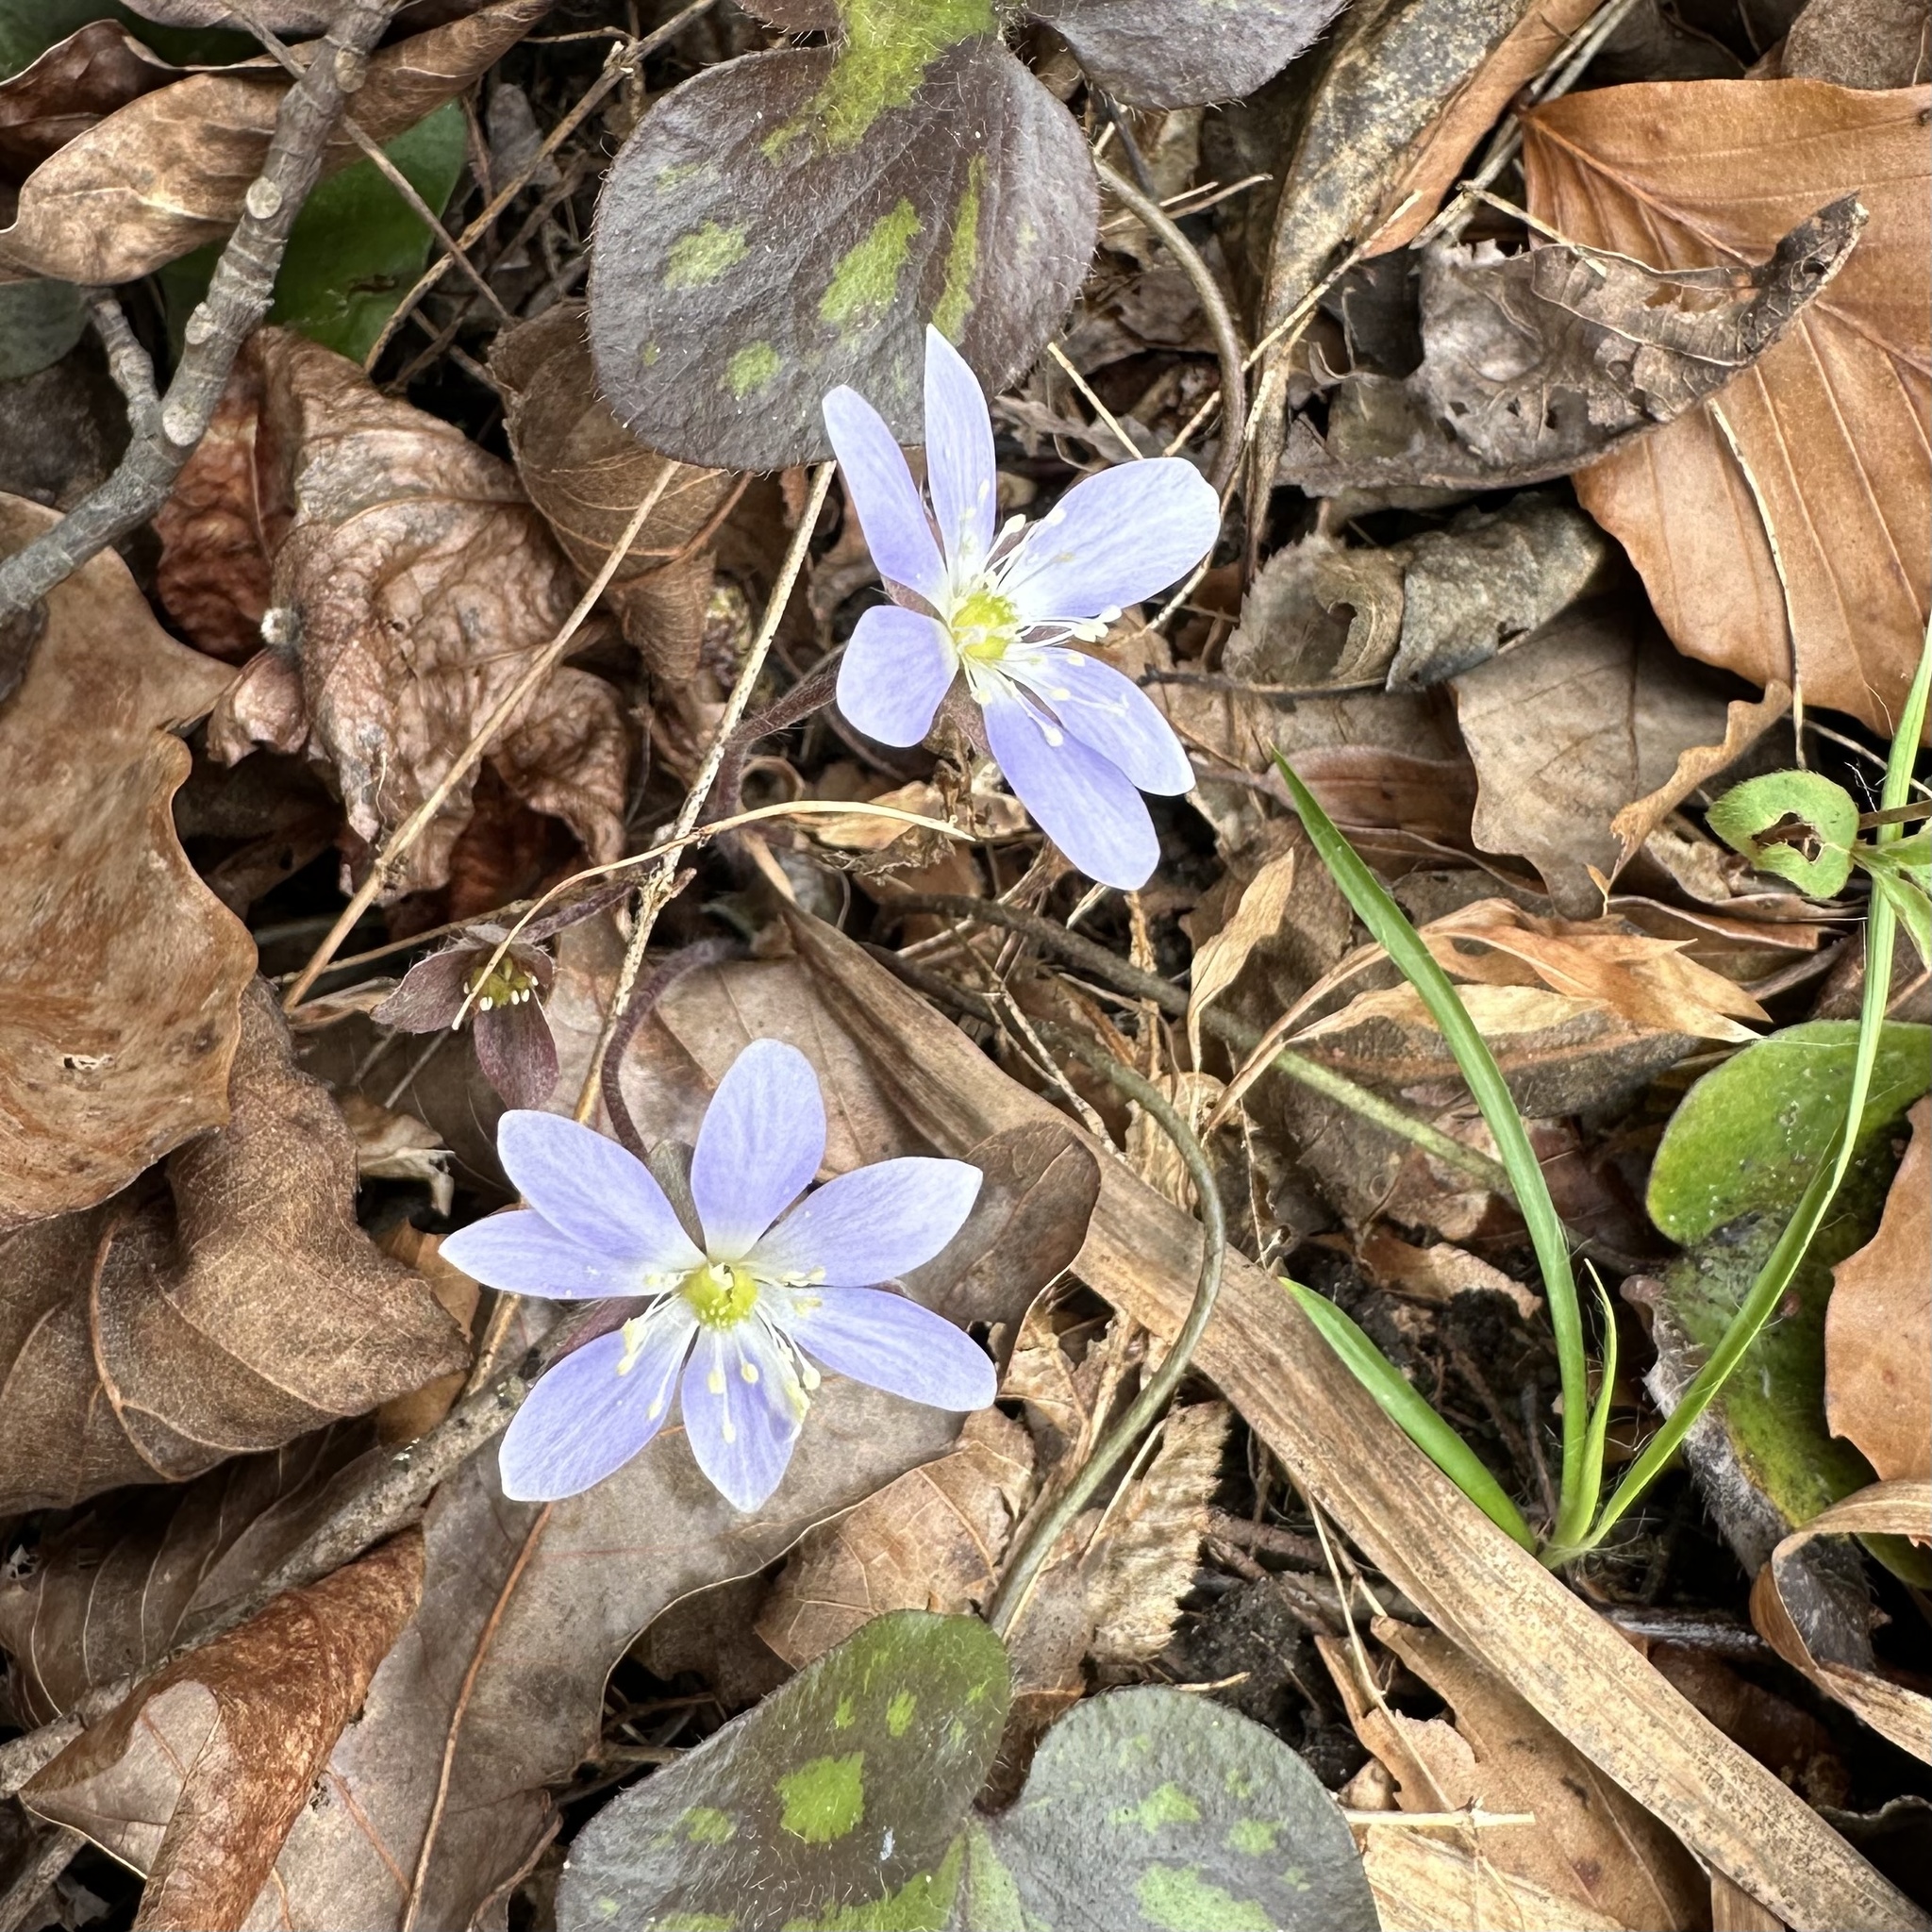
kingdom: Plantae
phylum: Tracheophyta
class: Magnoliopsida
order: Ranunculales
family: Ranunculaceae
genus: Hepatica
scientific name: Hepatica americana
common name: American hepatica
